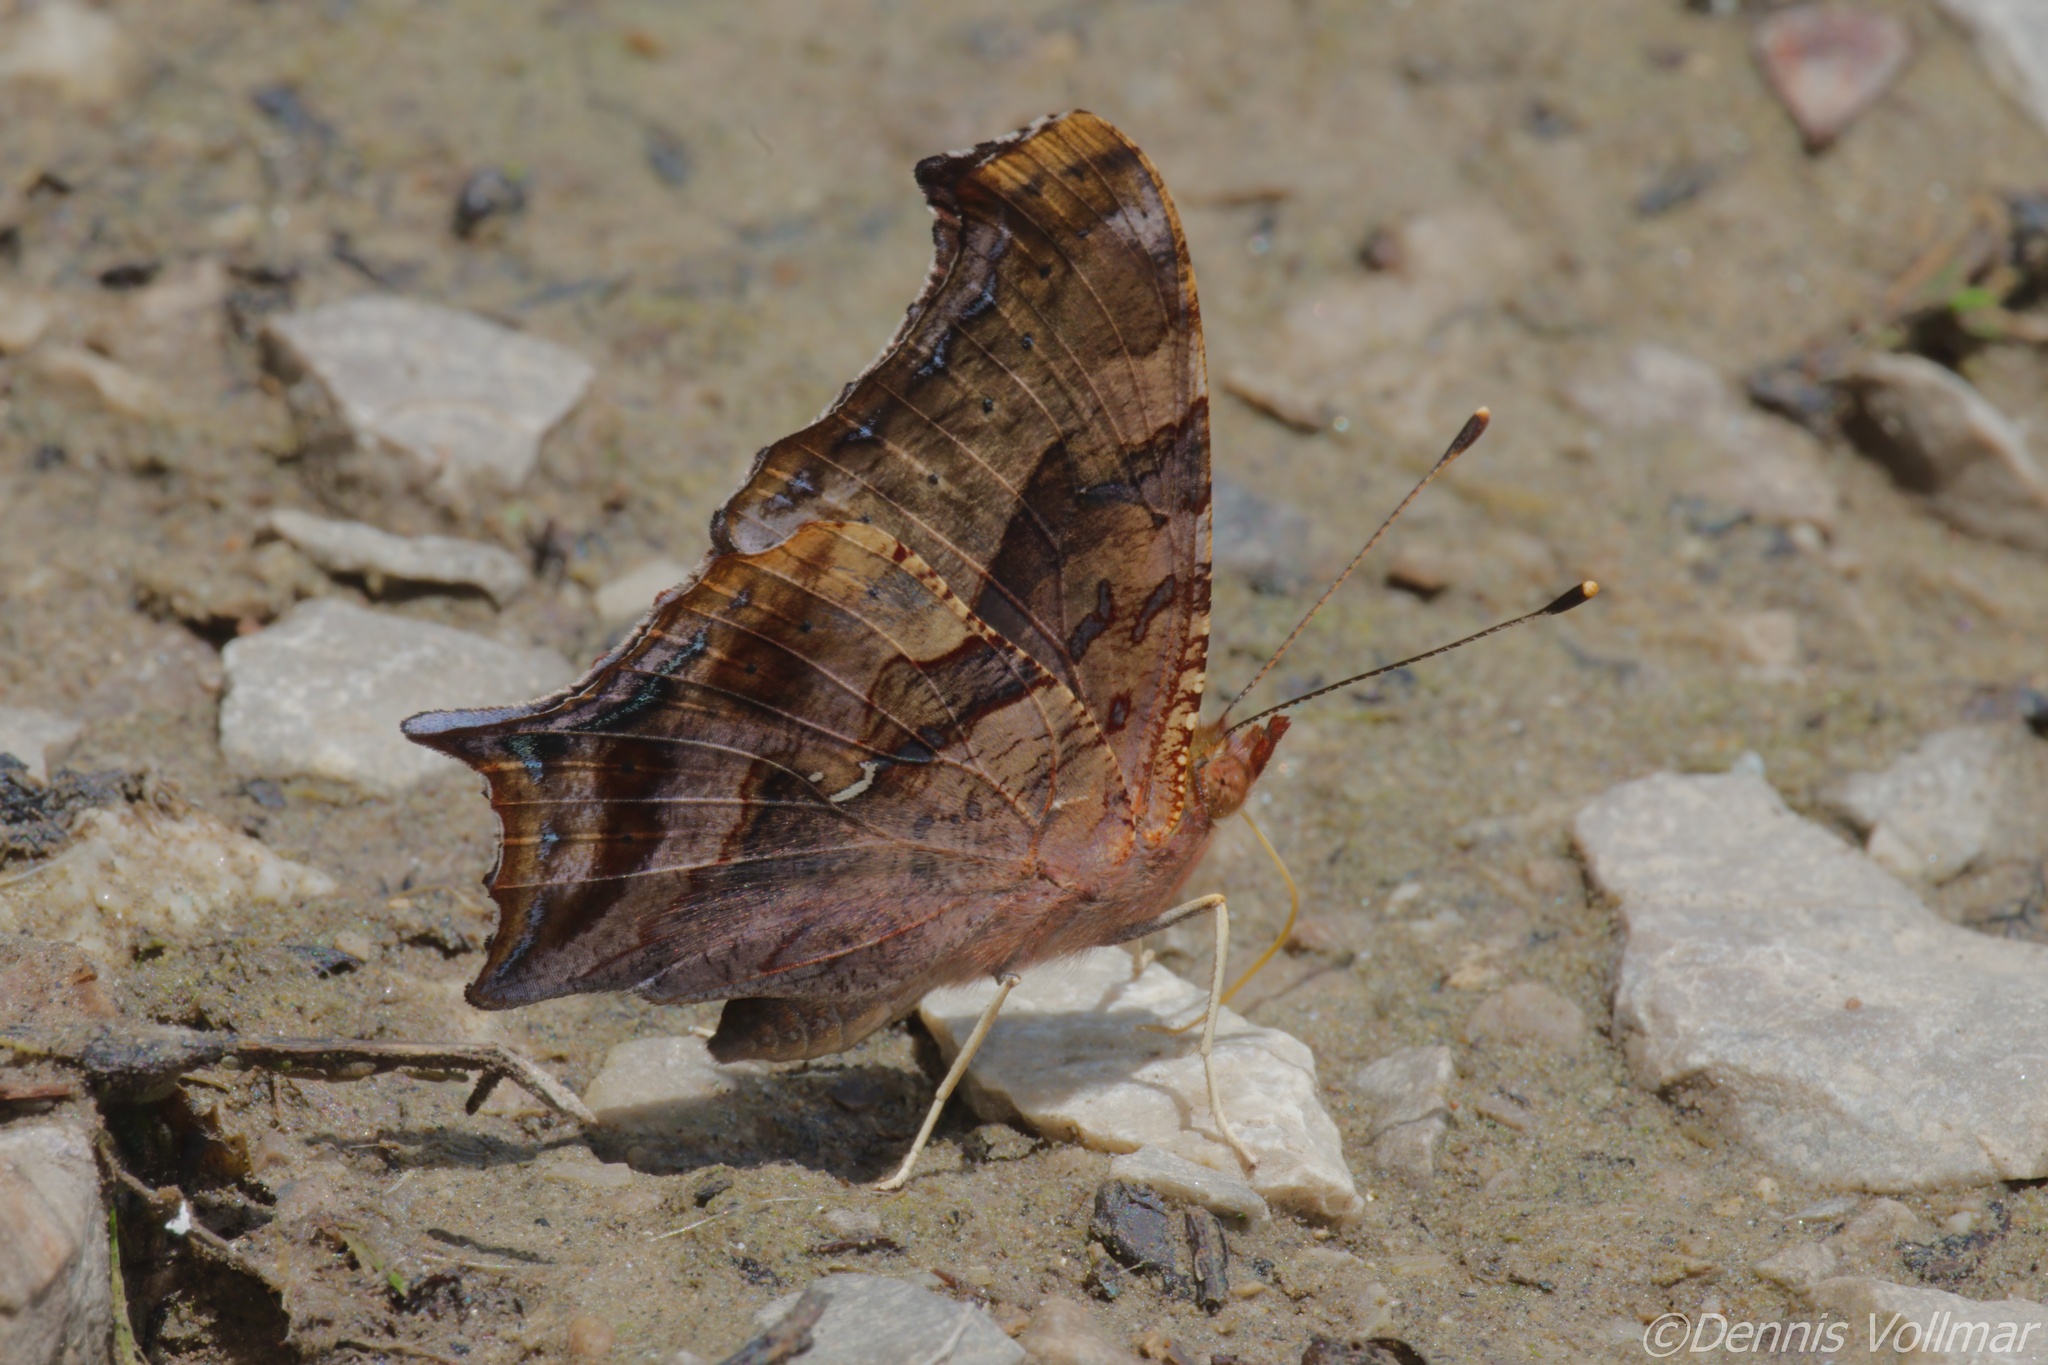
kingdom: Animalia
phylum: Arthropoda
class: Insecta
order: Lepidoptera
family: Nymphalidae
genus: Polygonia
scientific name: Polygonia interrogationis
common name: Question mark
